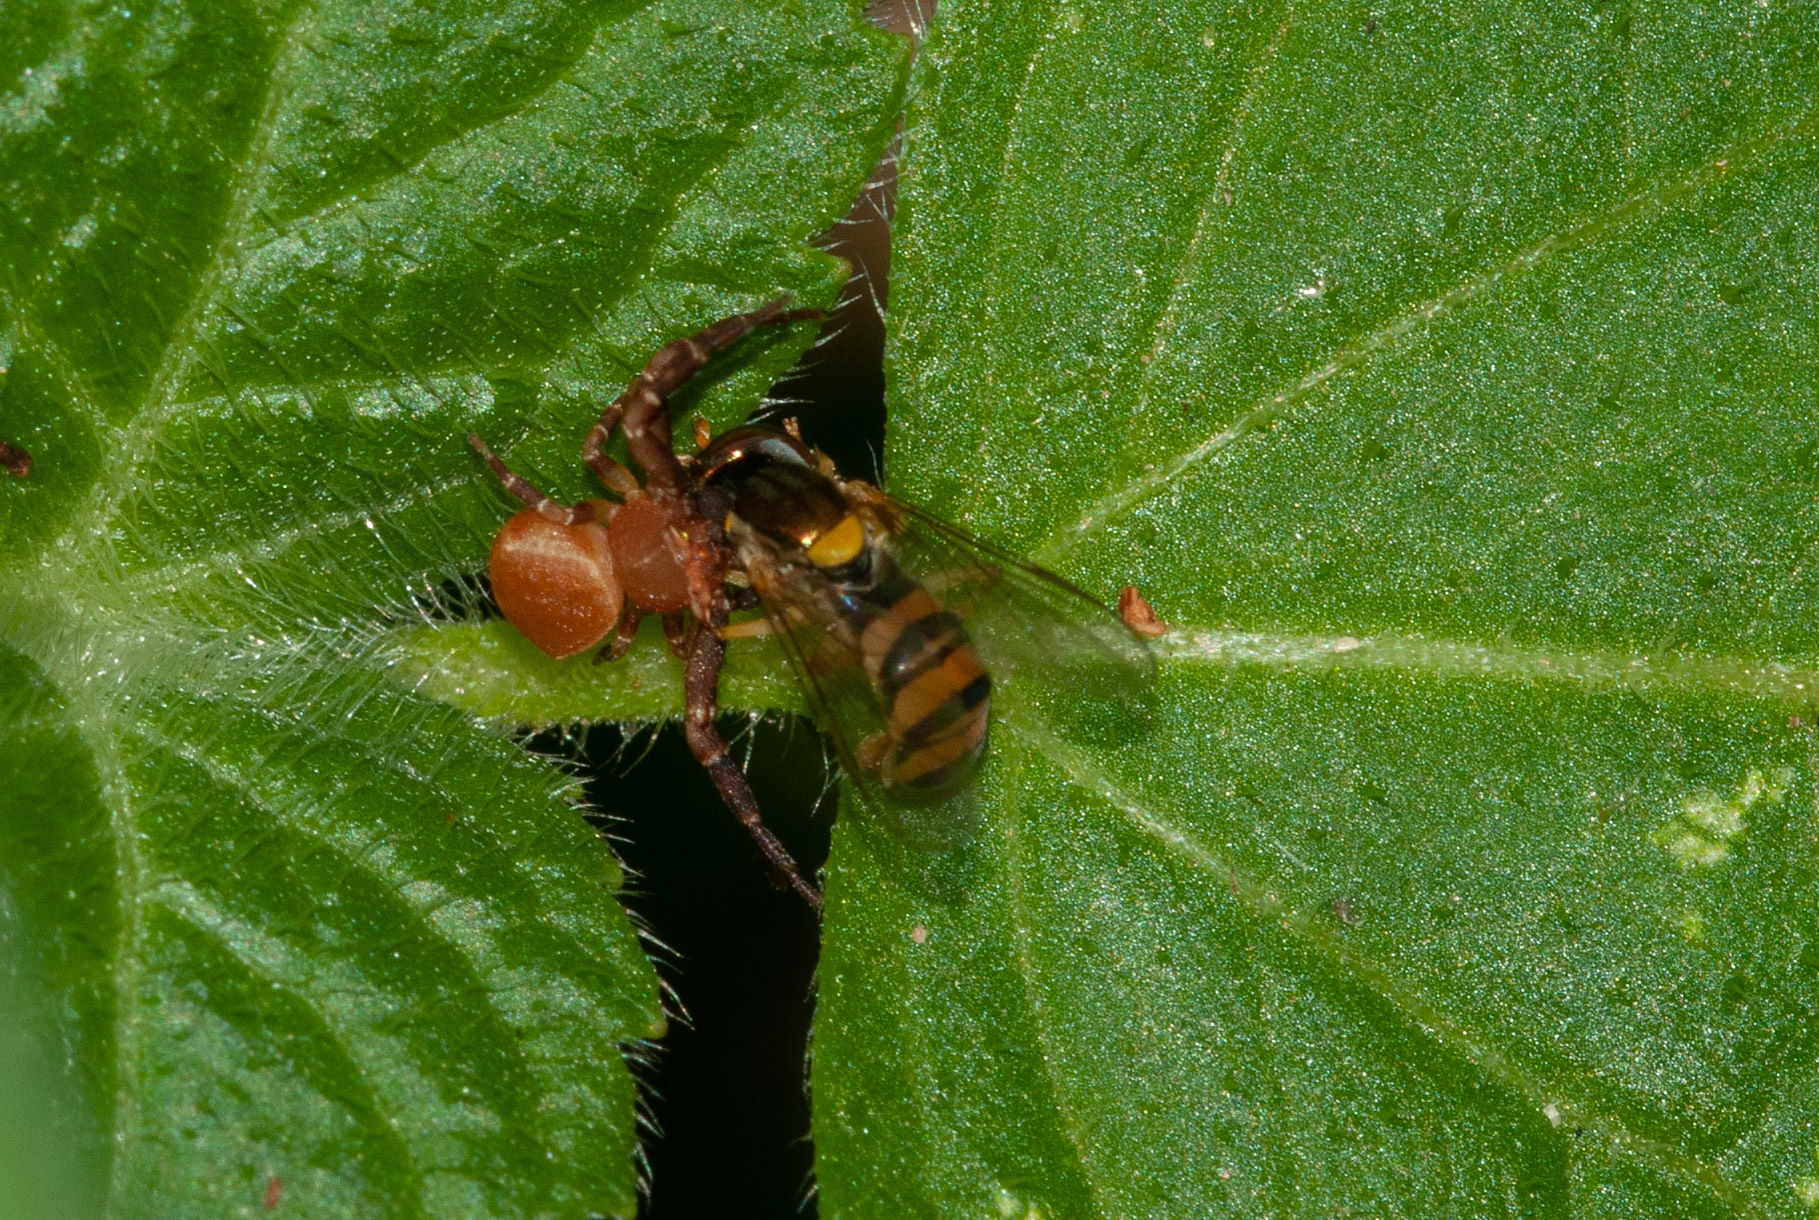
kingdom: Animalia
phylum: Arthropoda
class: Arachnida
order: Araneae
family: Thomisidae
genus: Thomisus
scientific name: Thomisus spectabilis
